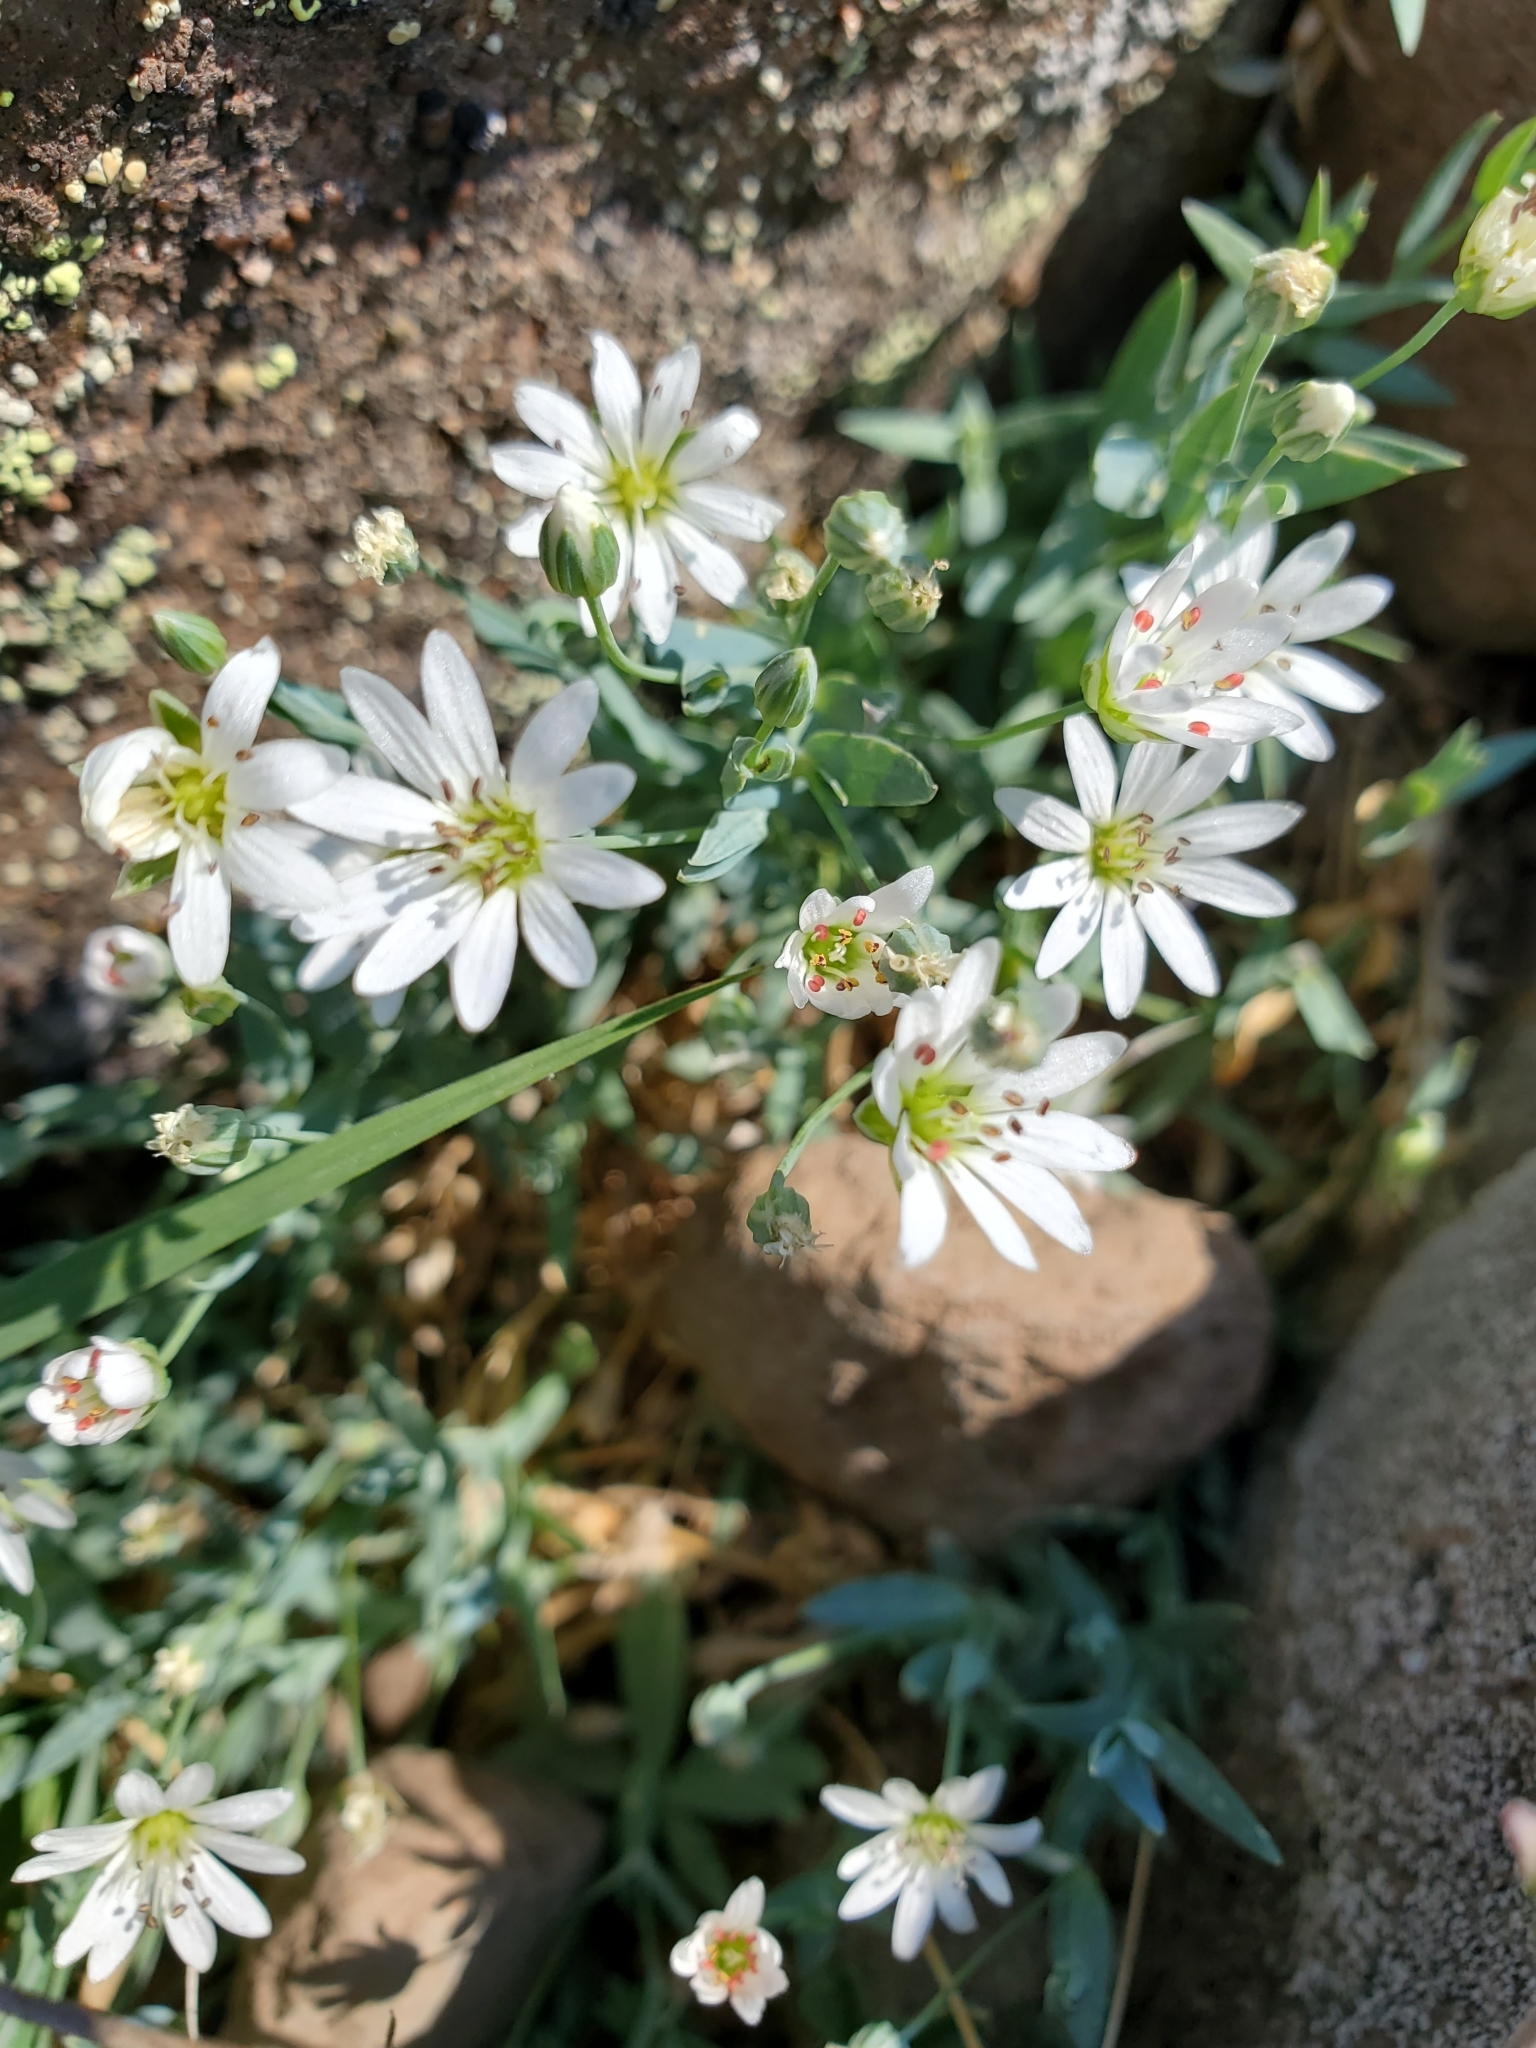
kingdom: Plantae
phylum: Tracheophyta
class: Magnoliopsida
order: Caryophyllales
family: Caryophyllaceae
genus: Stellaria
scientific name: Stellaria longipes
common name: Goldie's starwort
